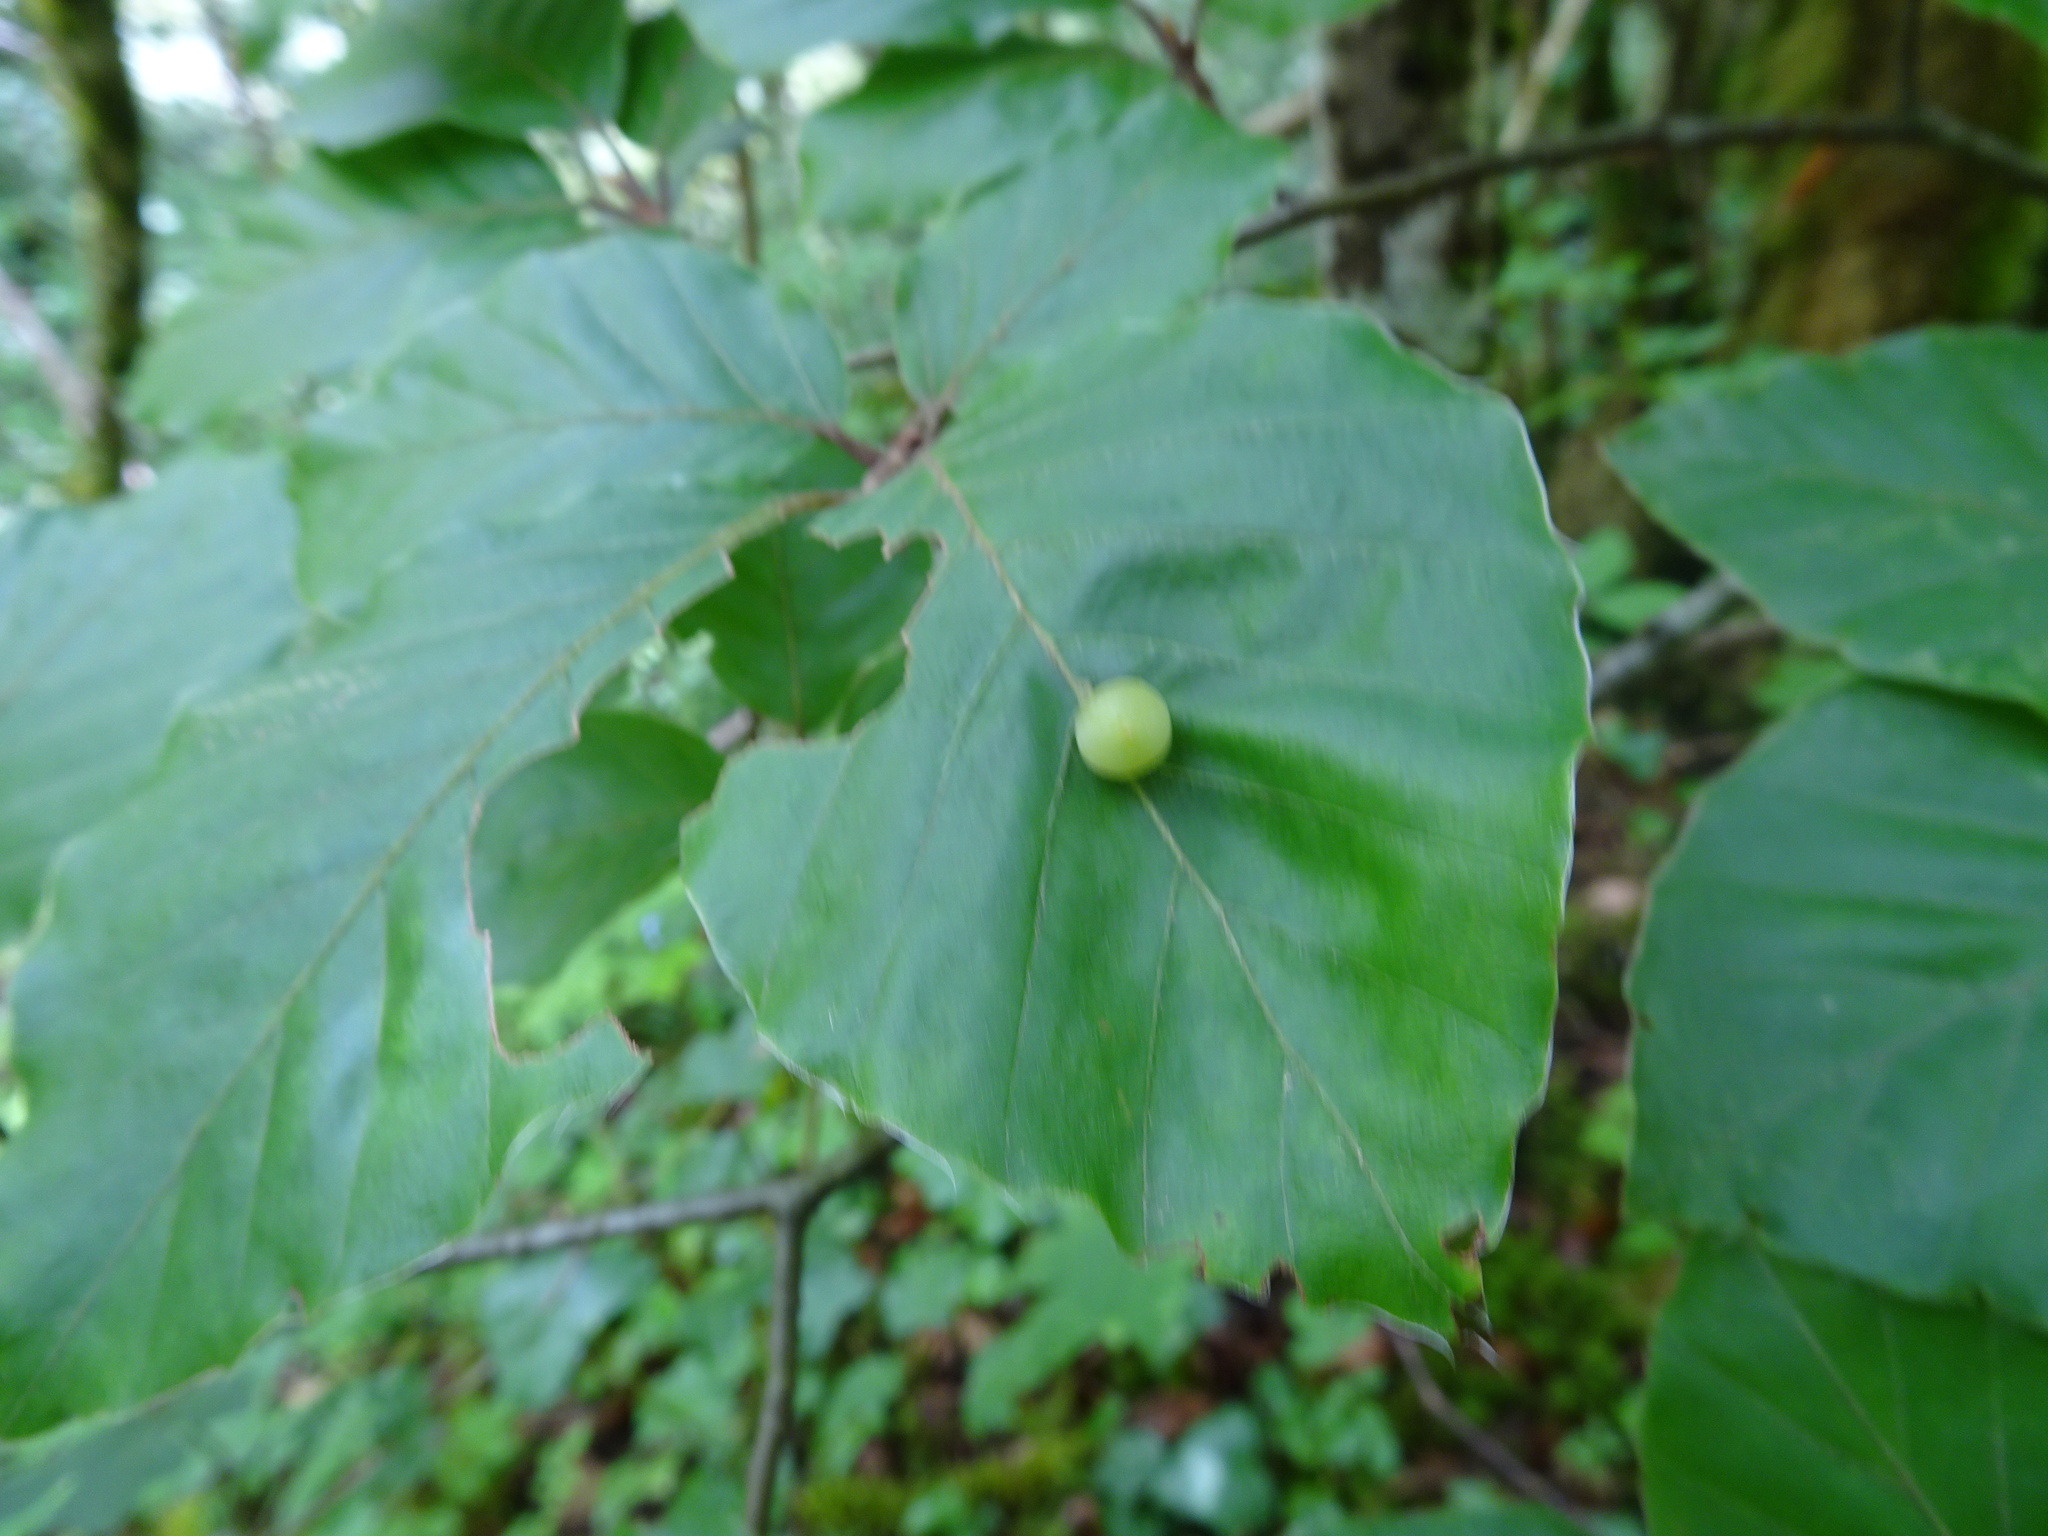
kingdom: Animalia
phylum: Arthropoda
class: Insecta
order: Diptera
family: Cecidomyiidae
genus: Mikiola
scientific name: Mikiola fagi
